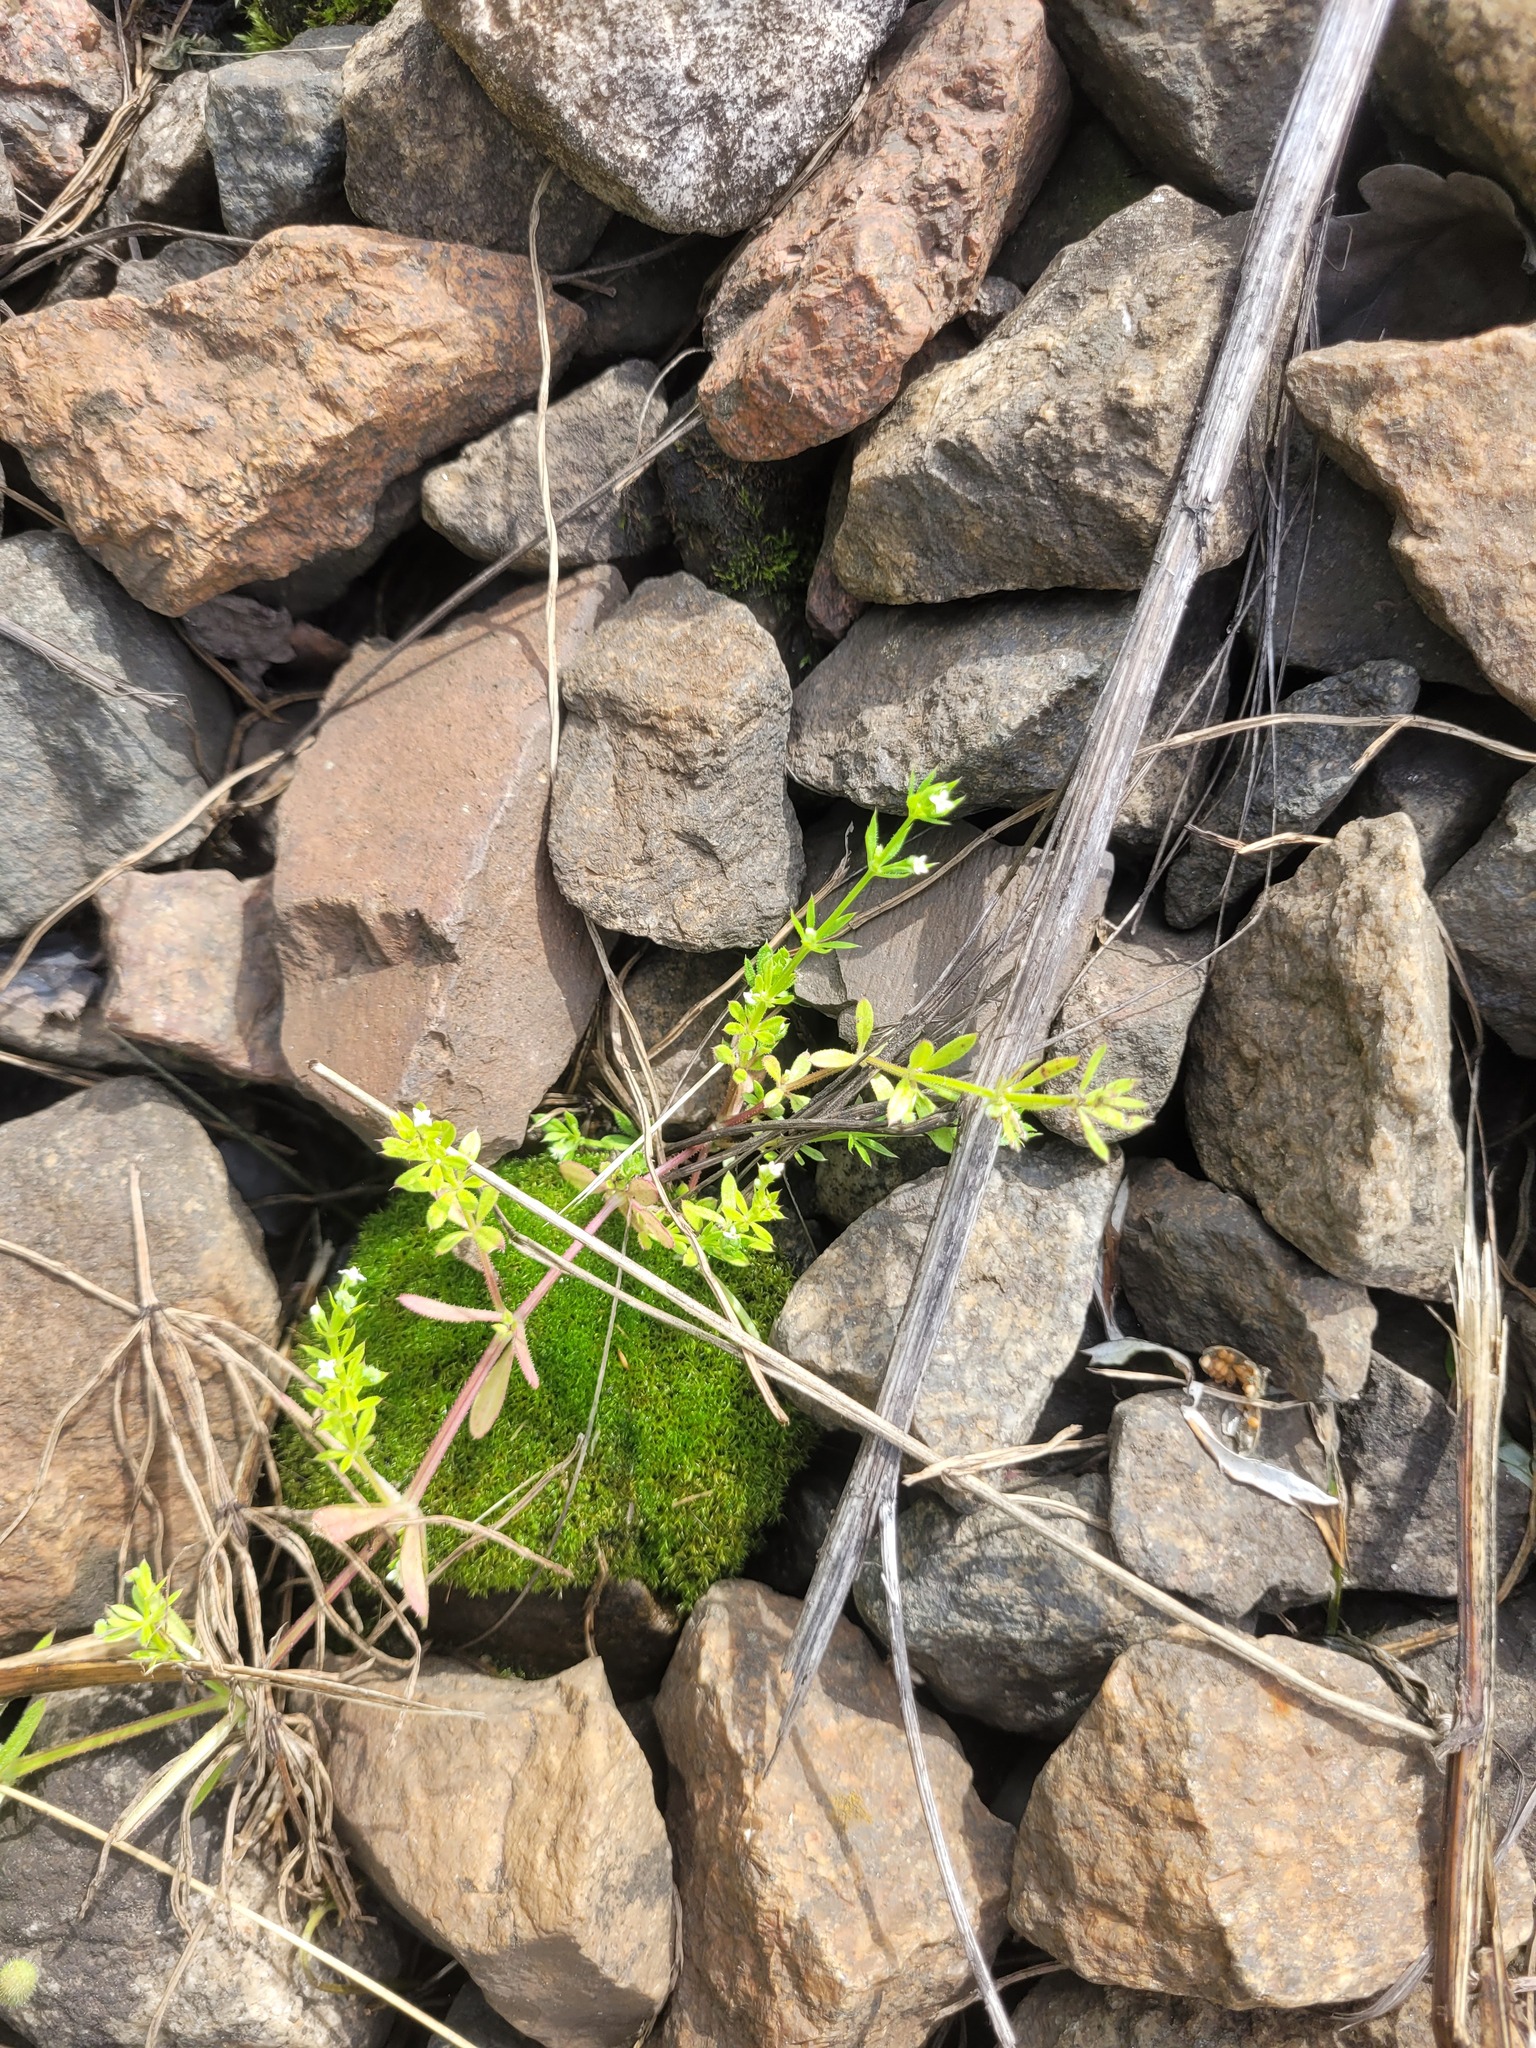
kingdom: Plantae
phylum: Tracheophyta
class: Magnoliopsida
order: Gentianales
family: Rubiaceae
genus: Galium
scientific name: Galium aparine
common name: Cleavers
